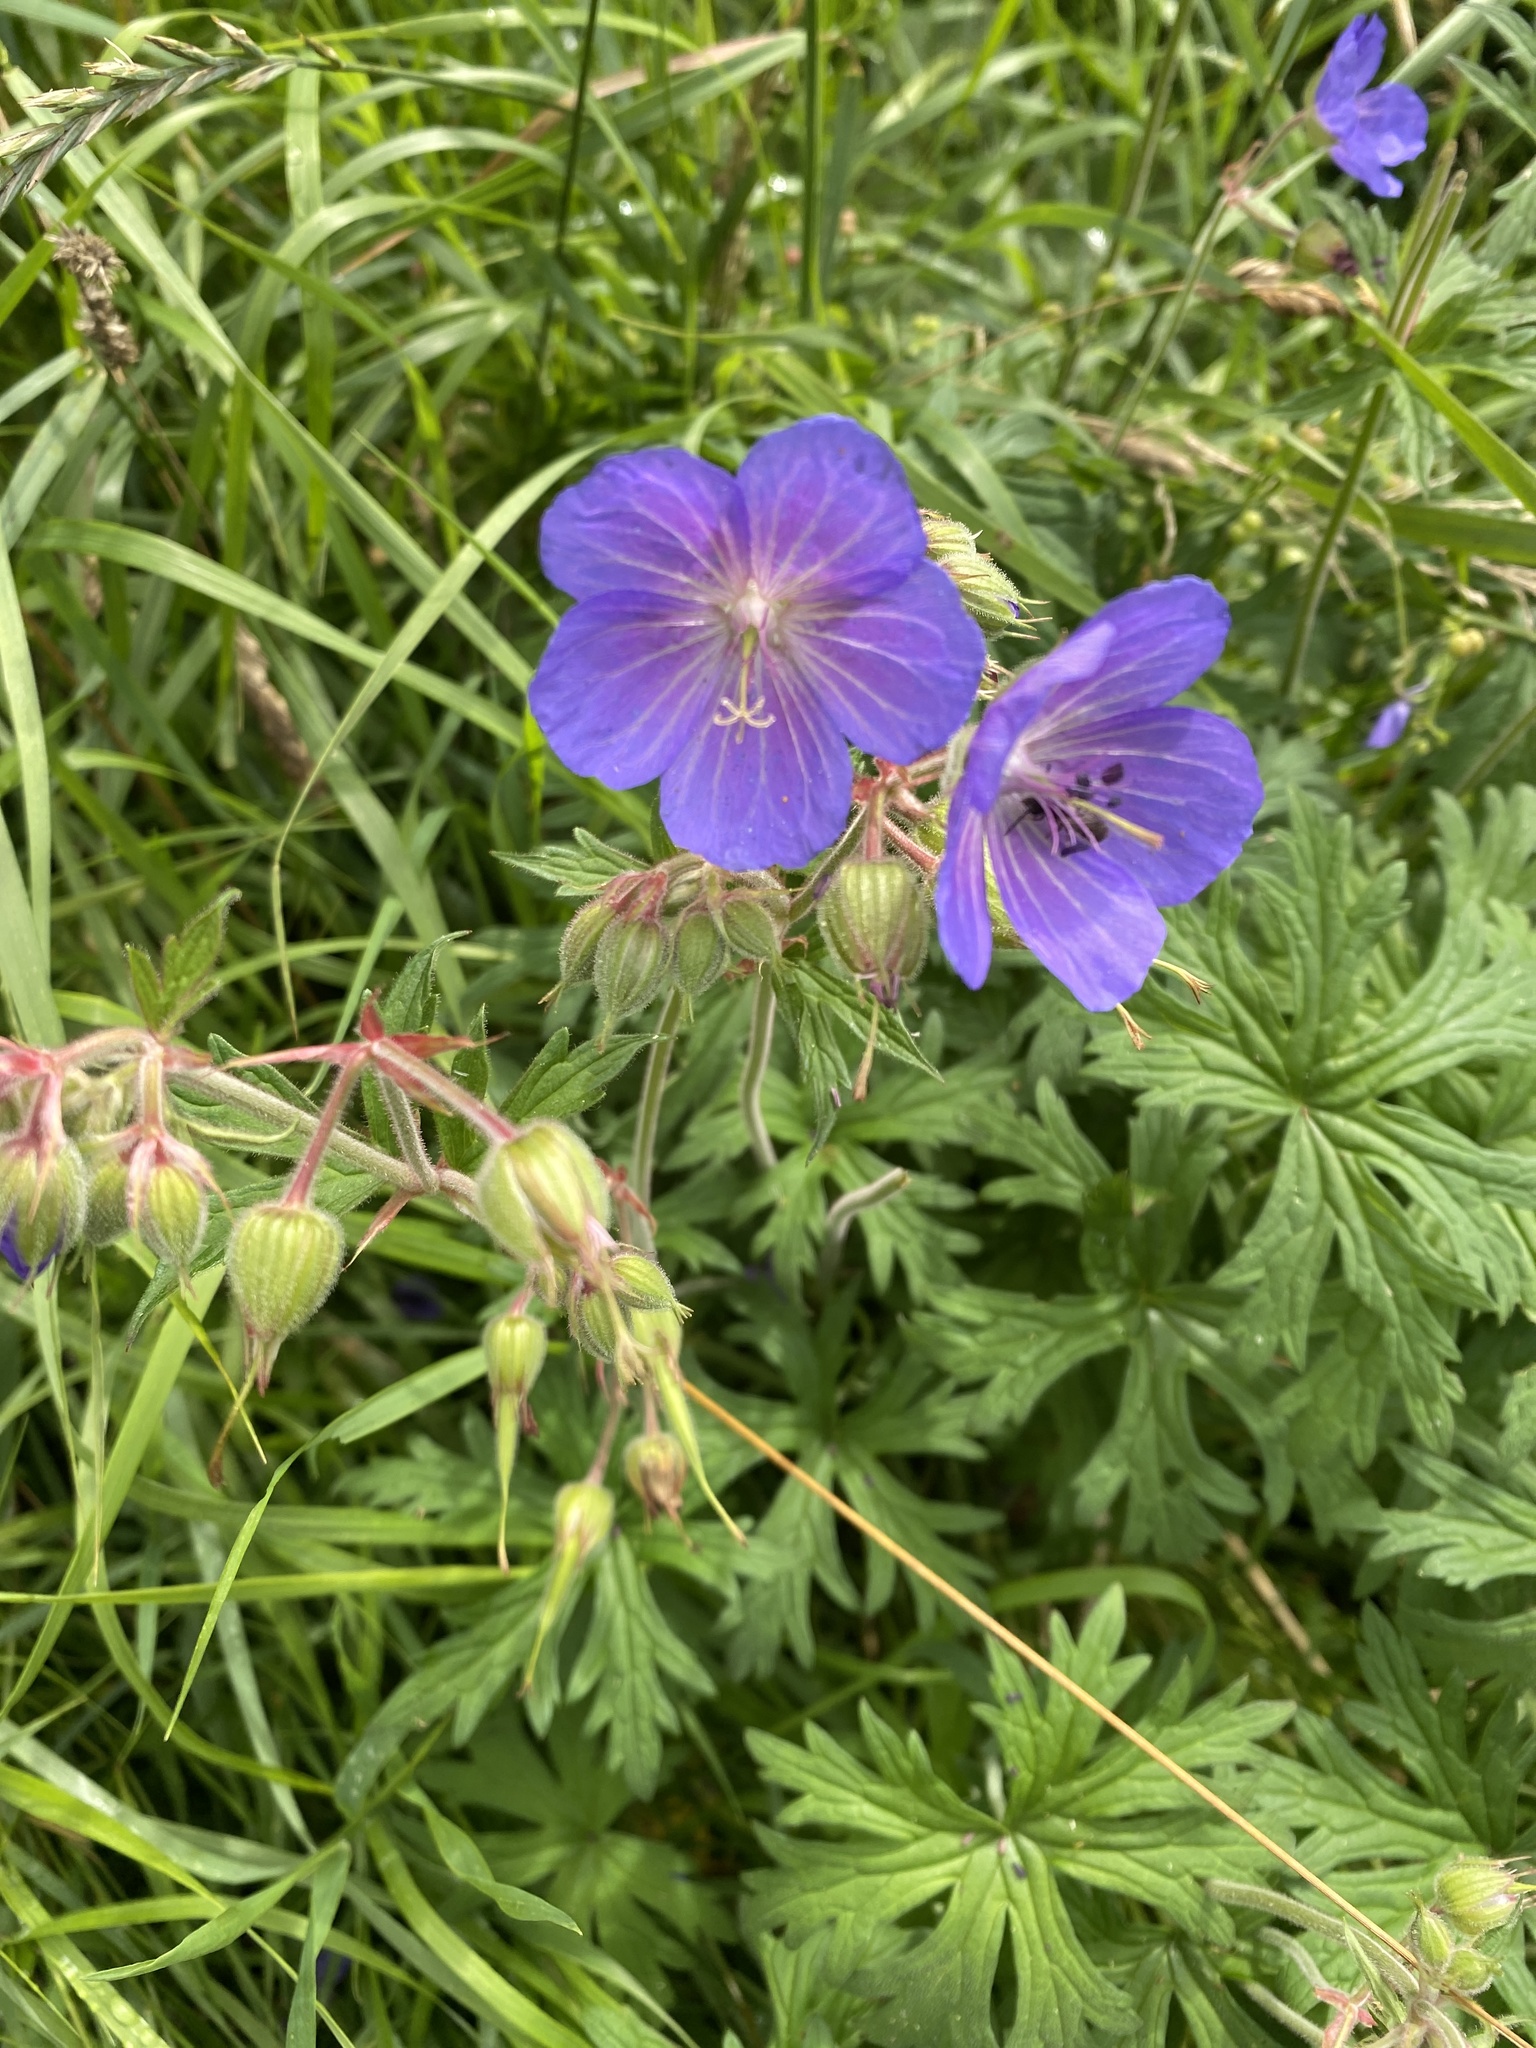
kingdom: Plantae
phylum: Tracheophyta
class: Magnoliopsida
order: Geraniales
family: Geraniaceae
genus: Geranium
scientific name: Geranium pratense
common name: Meadow crane's-bill
